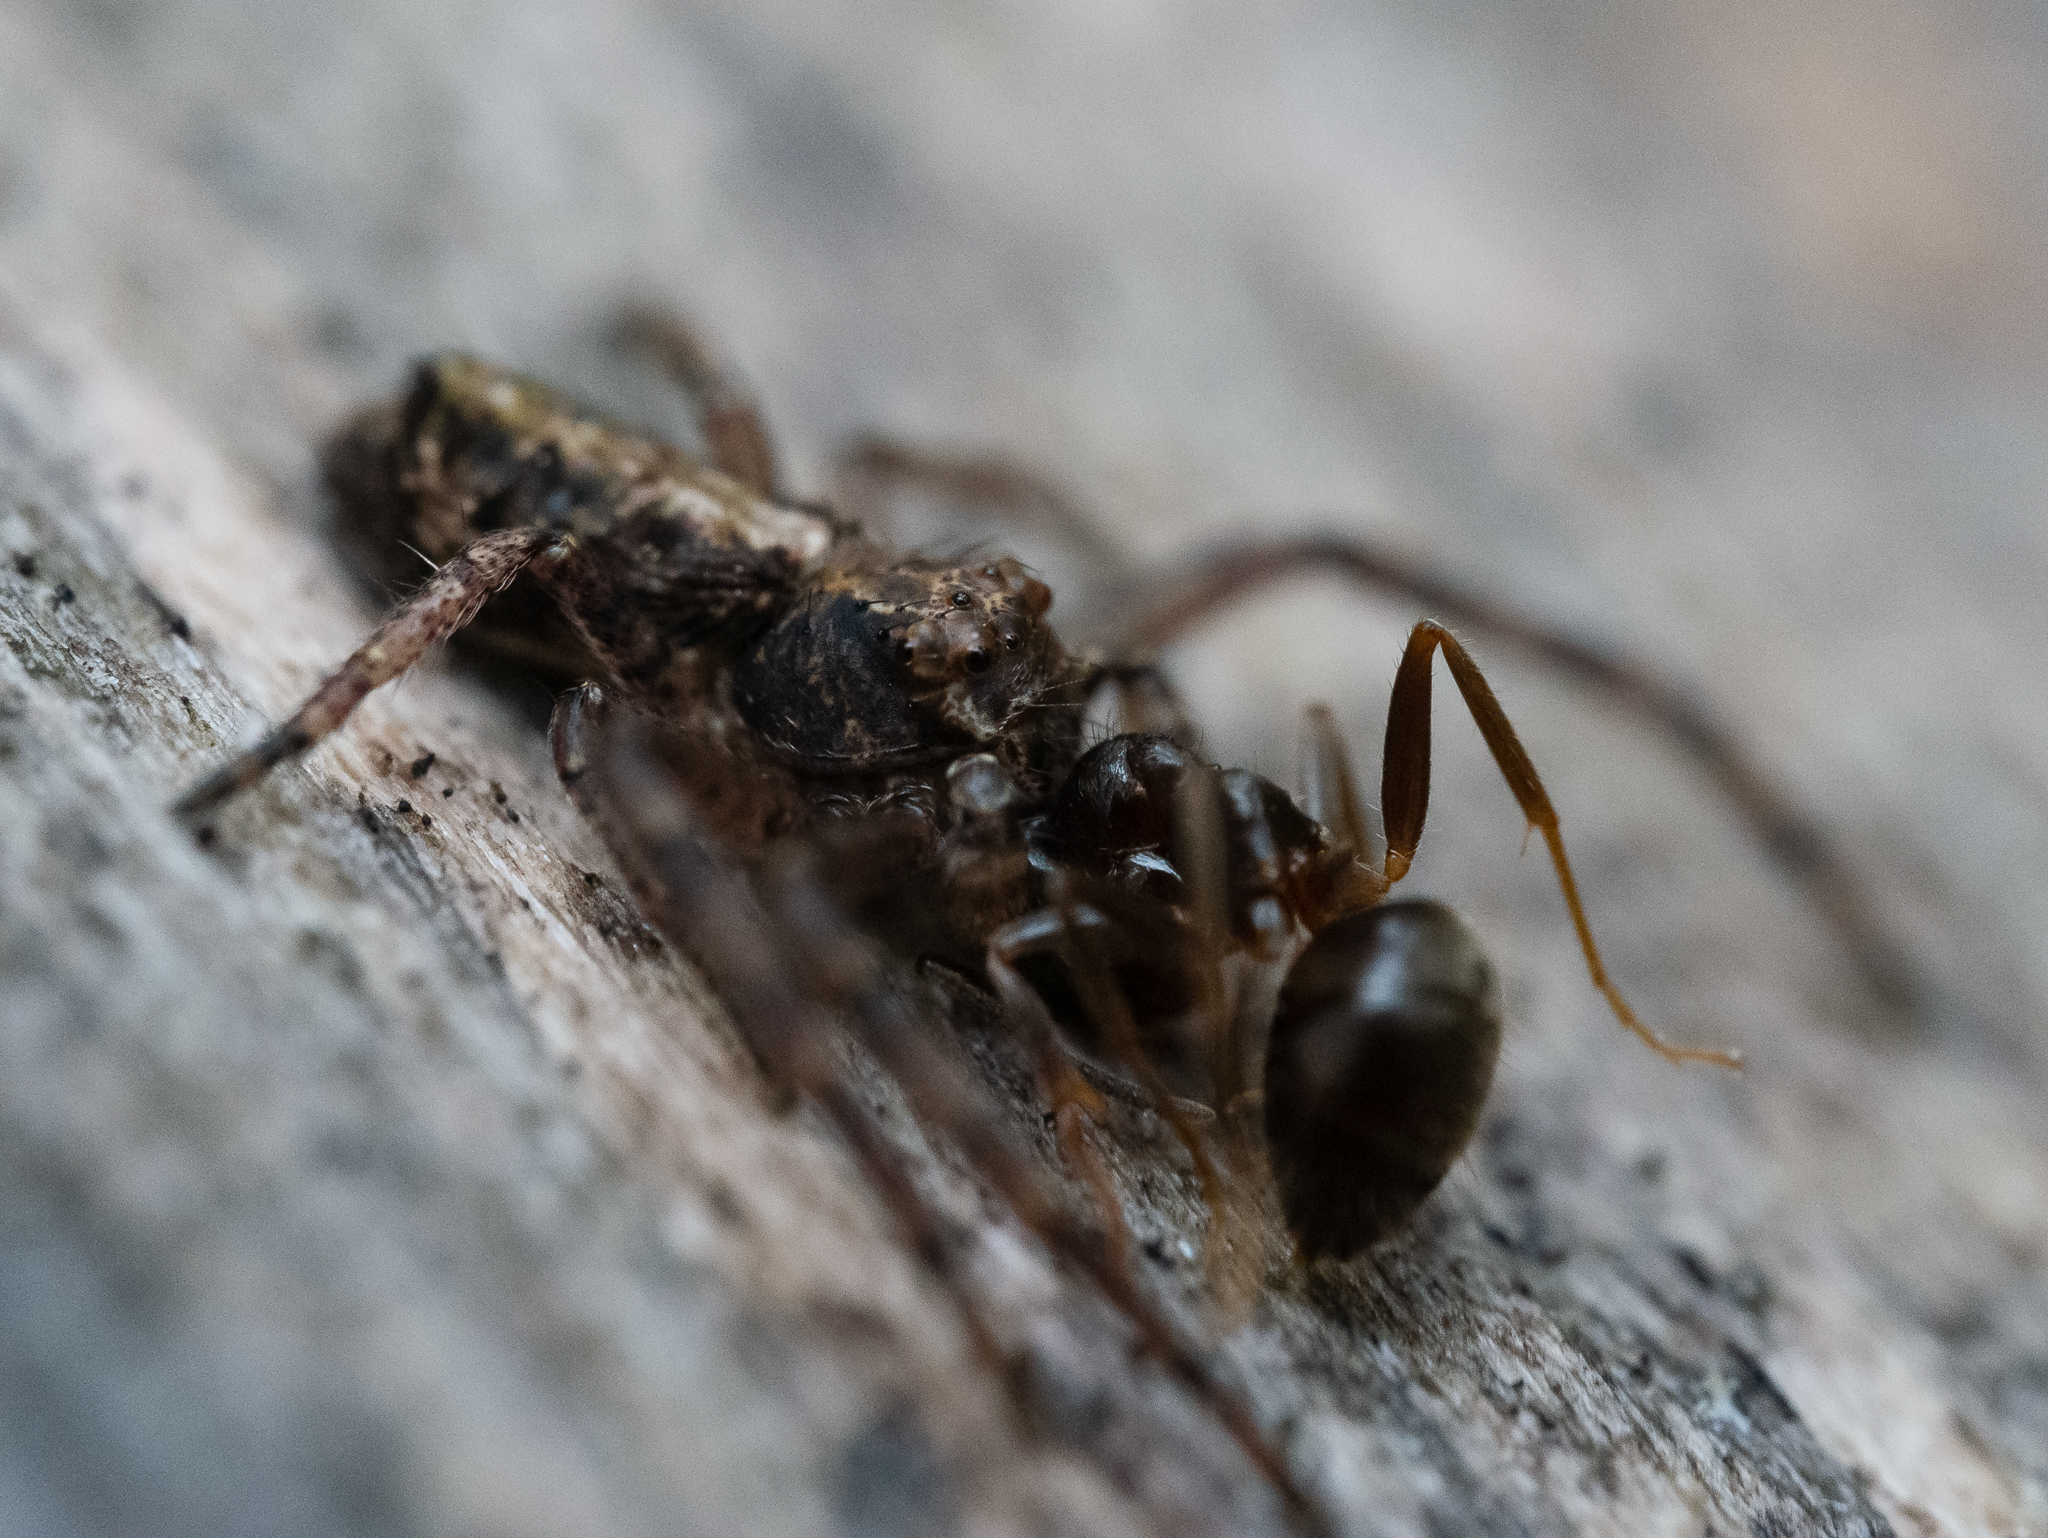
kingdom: Animalia
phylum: Arthropoda
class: Arachnida
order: Araneae
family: Thomisidae
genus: Tmarus
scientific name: Tmarus piger
